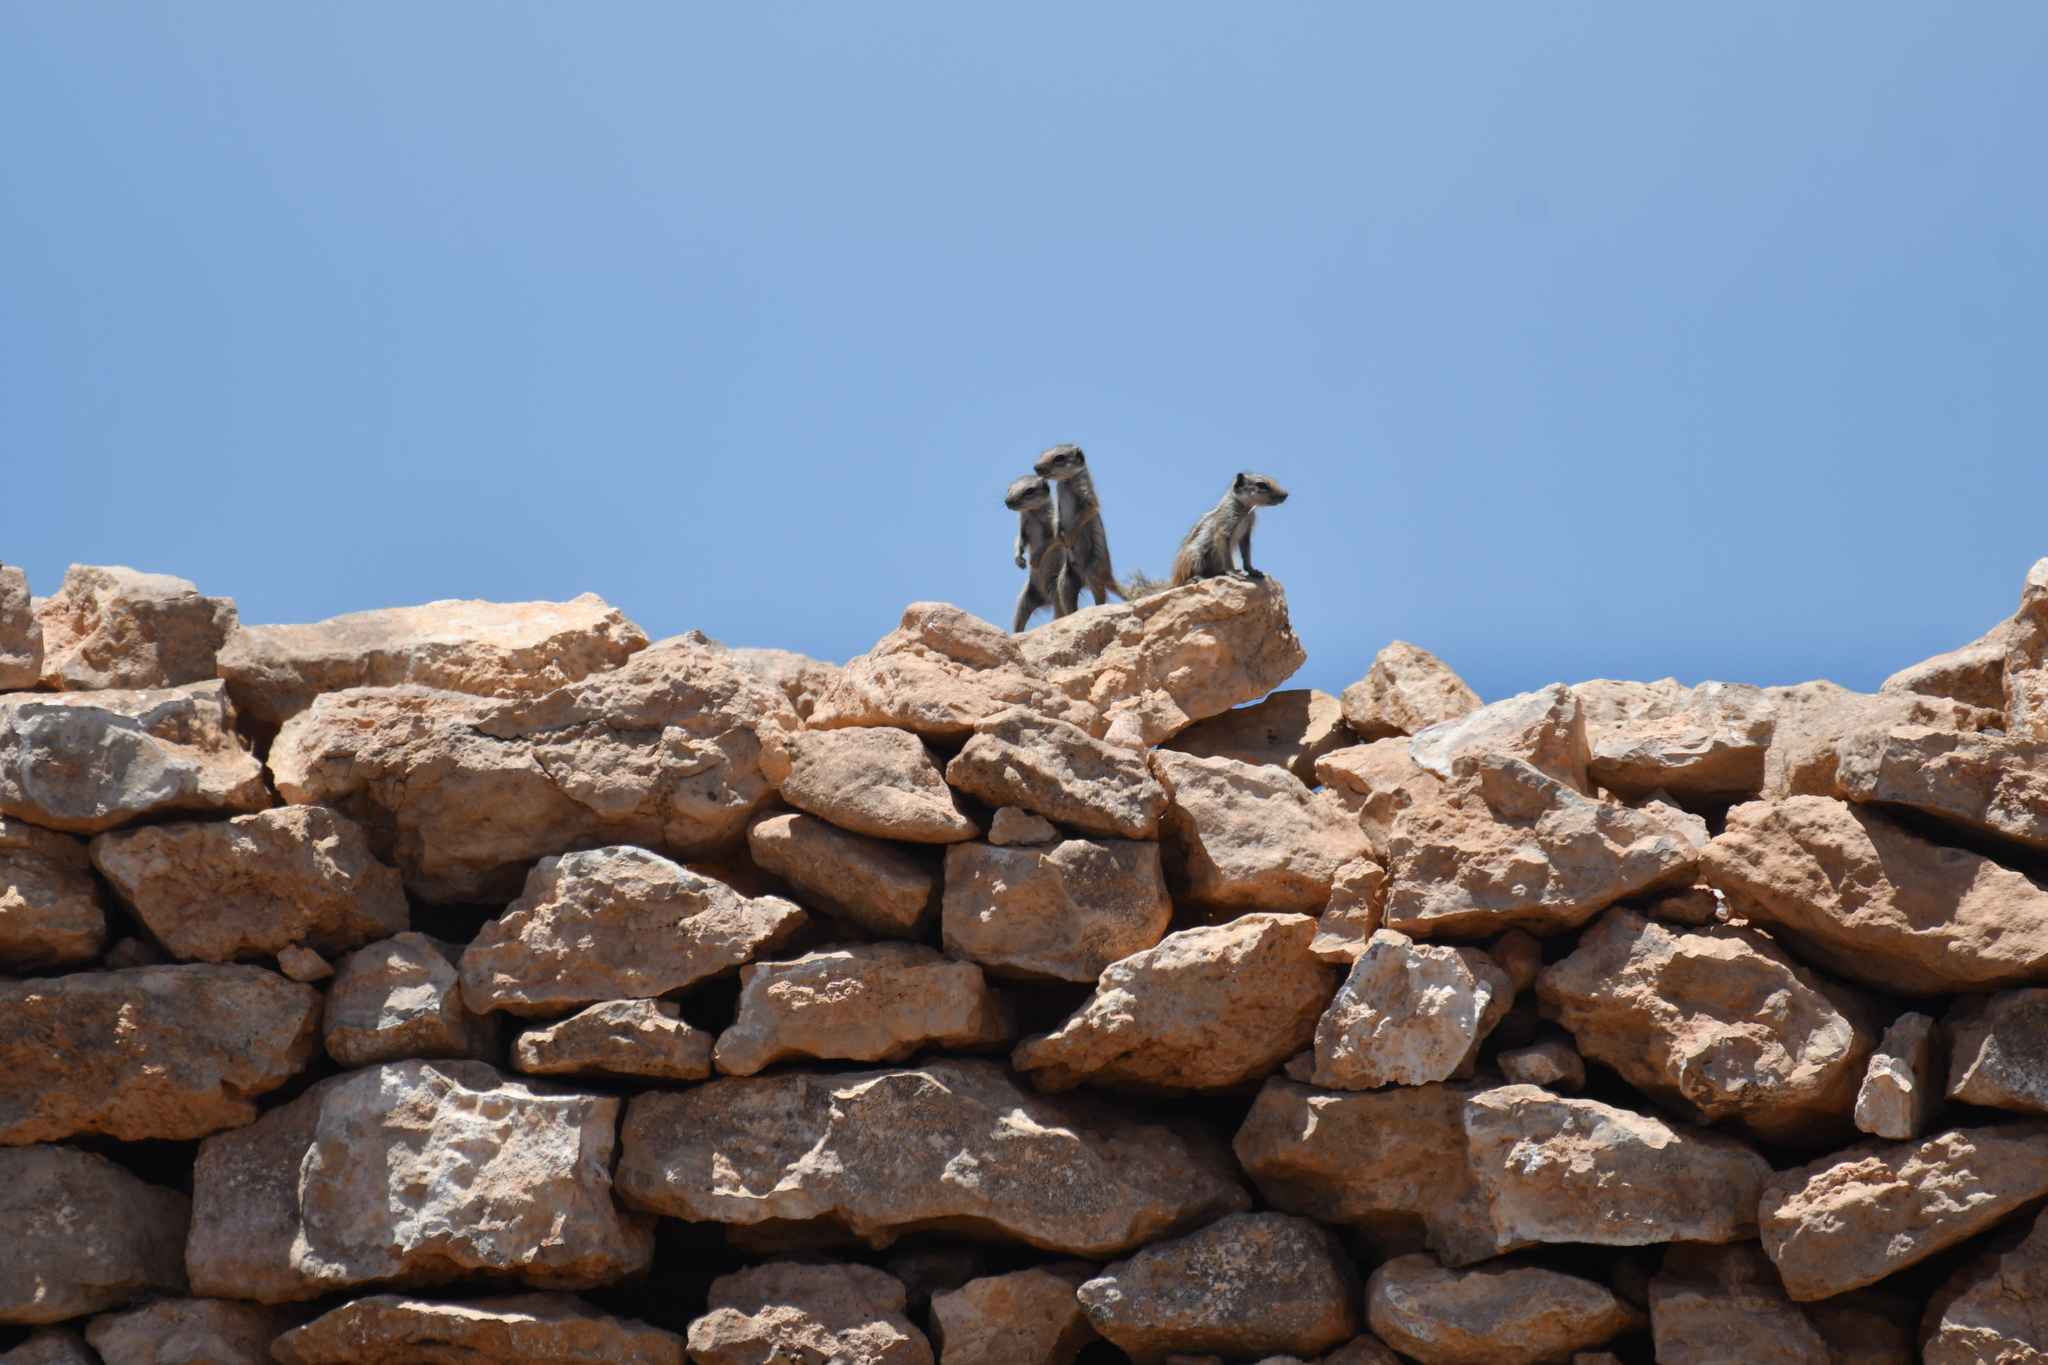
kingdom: Animalia
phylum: Chordata
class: Mammalia
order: Rodentia
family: Sciuridae
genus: Atlantoxerus
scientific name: Atlantoxerus getulus
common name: Barbary ground squirrel
